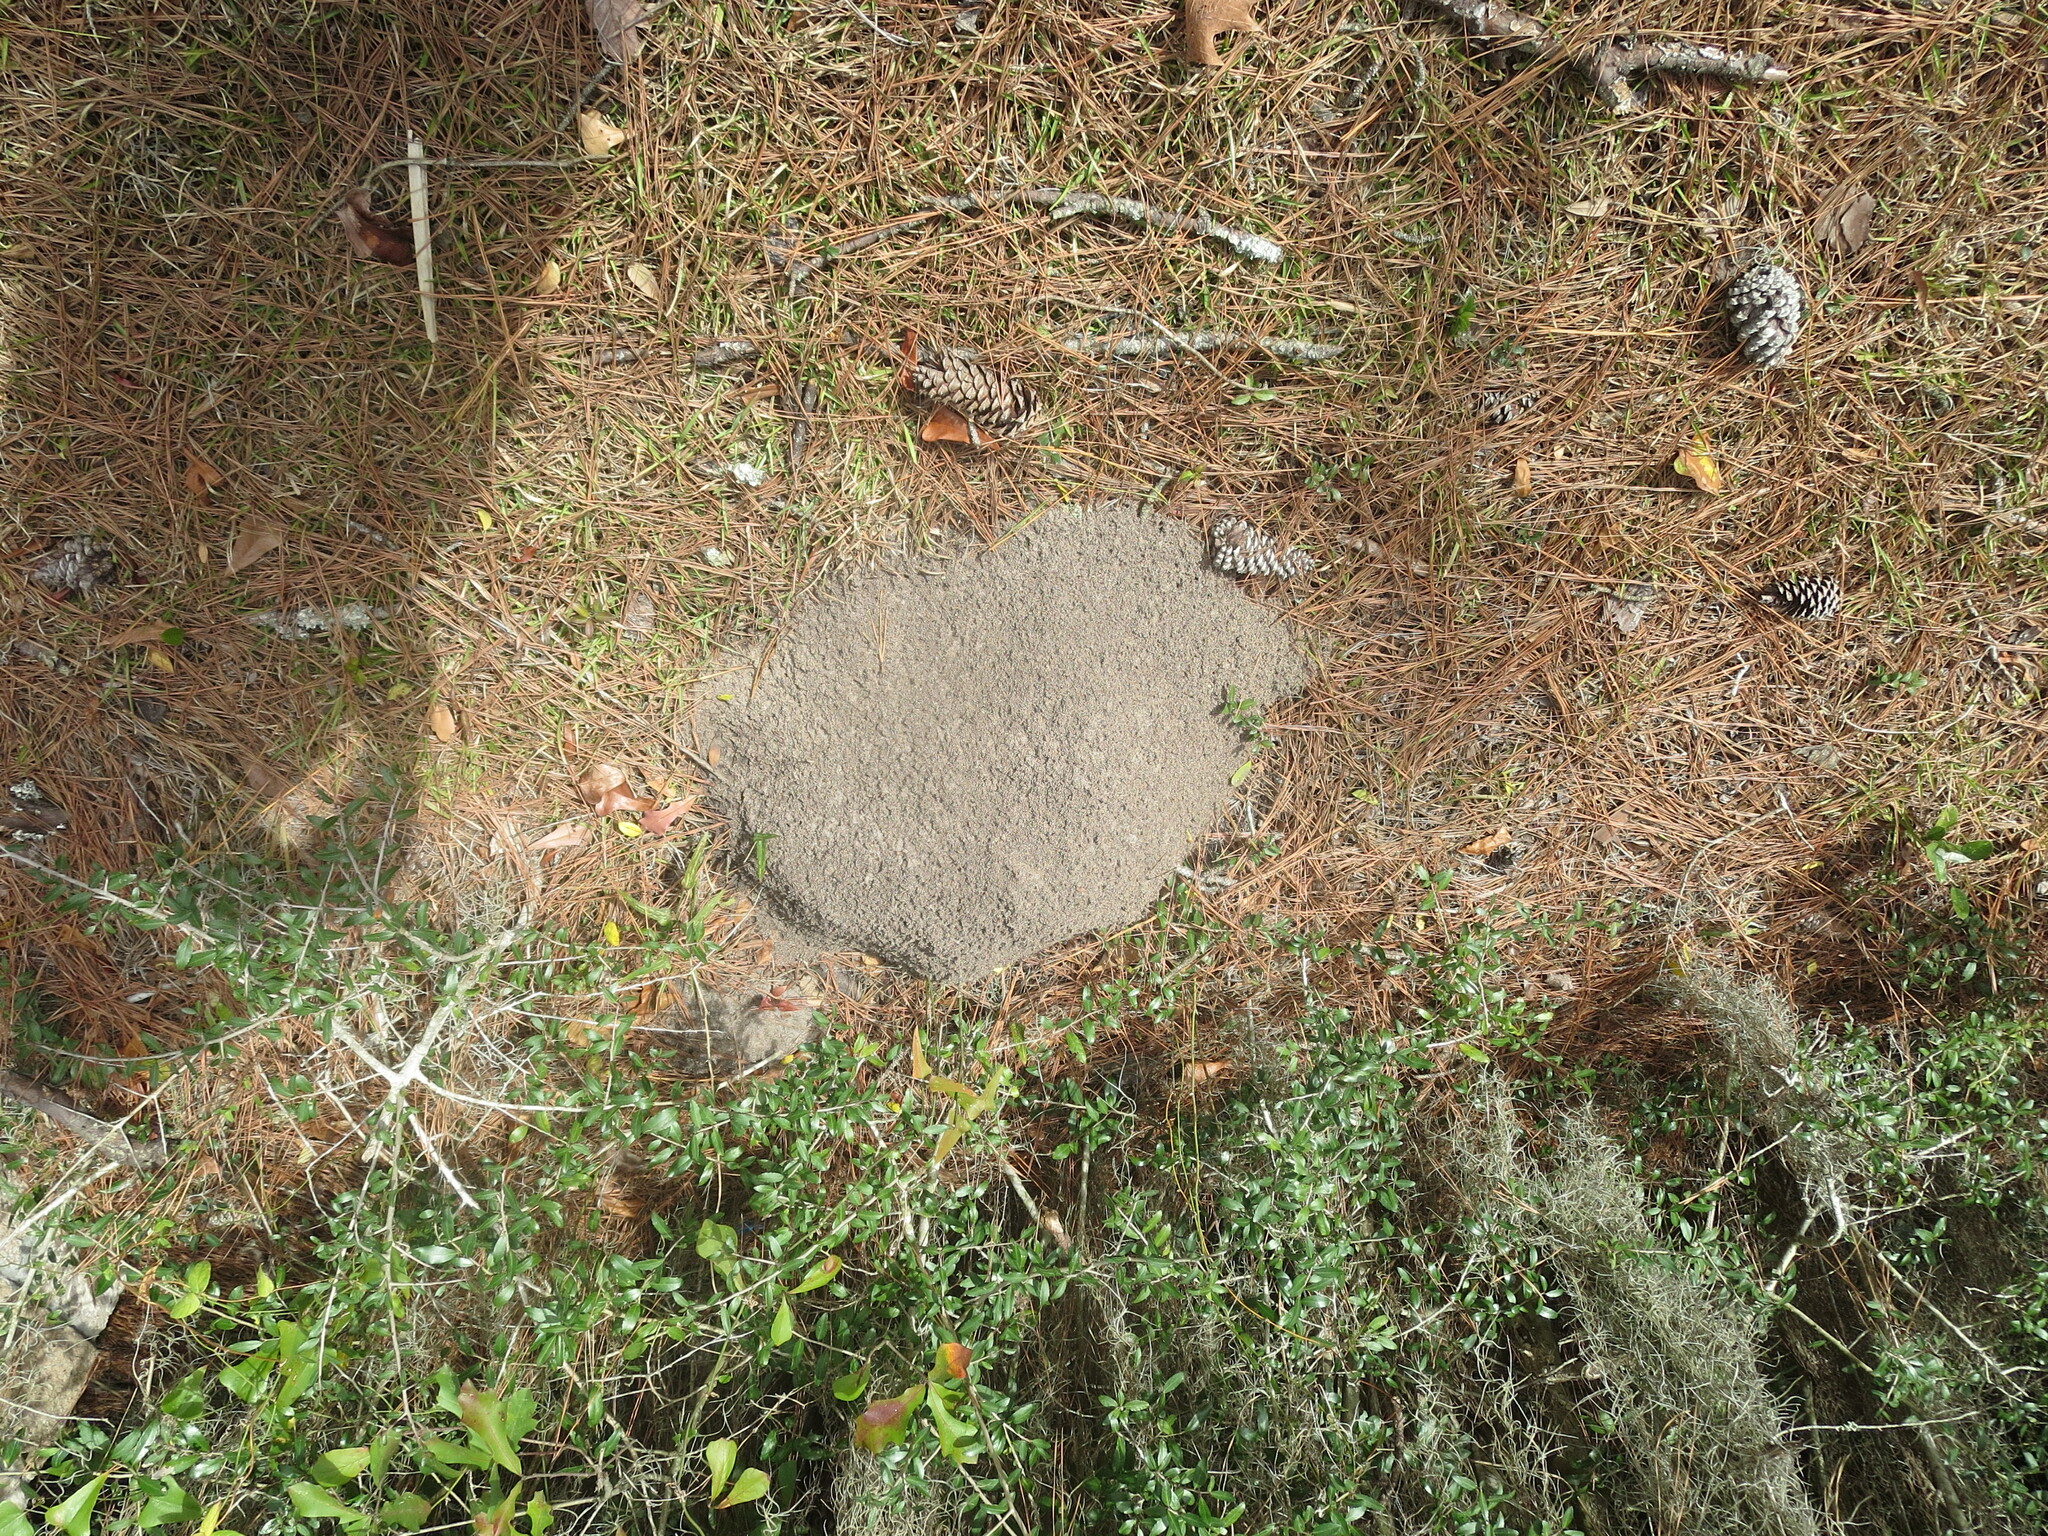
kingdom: Animalia
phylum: Arthropoda
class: Insecta
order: Hymenoptera
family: Formicidae
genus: Solenopsis
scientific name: Solenopsis invicta
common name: Red imported fire ant
